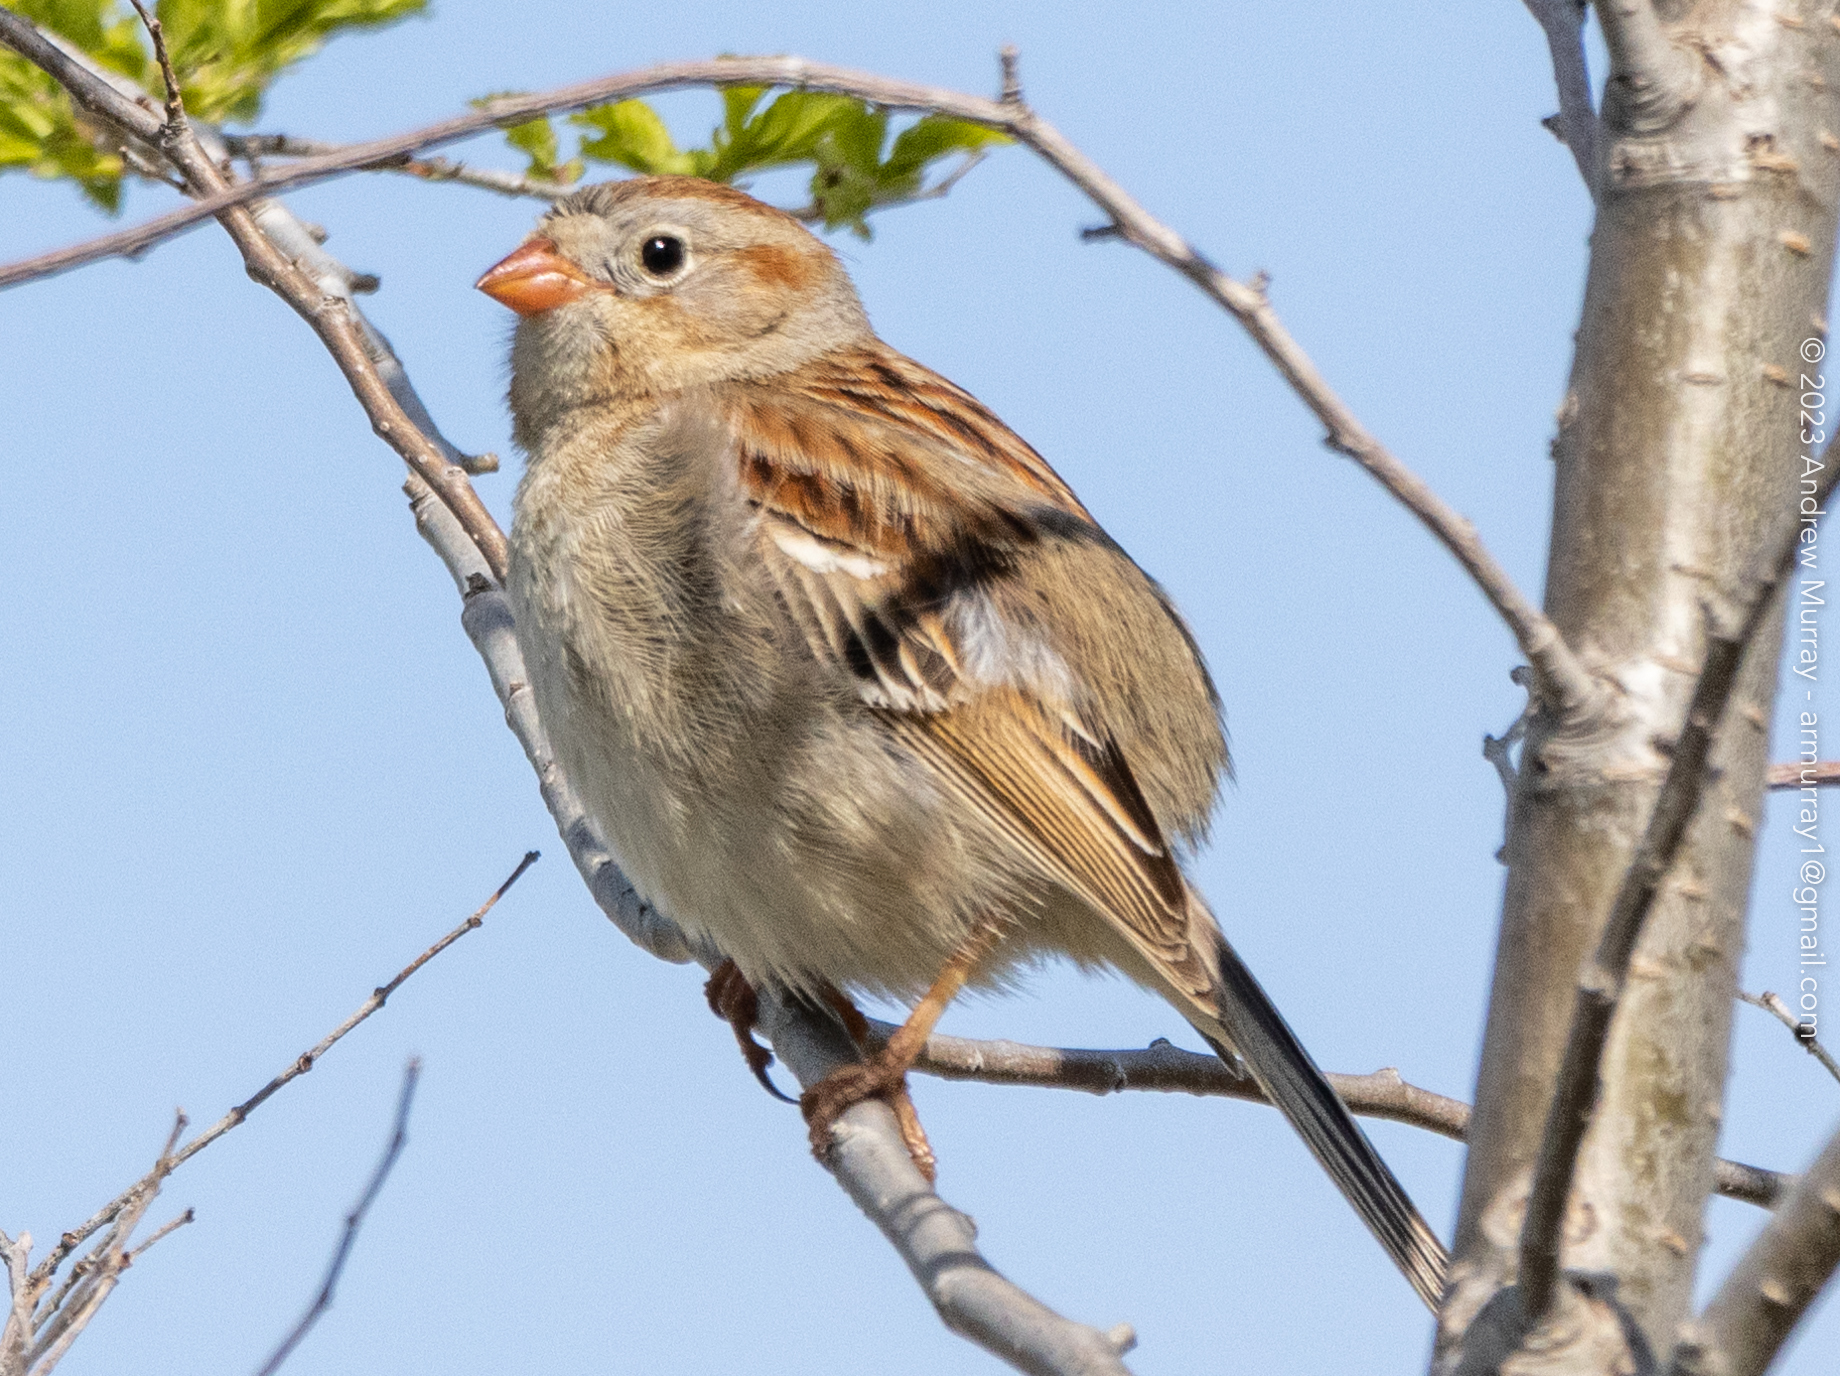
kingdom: Animalia
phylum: Chordata
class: Aves
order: Passeriformes
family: Passerellidae
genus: Spizella
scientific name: Spizella pusilla
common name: Field sparrow
